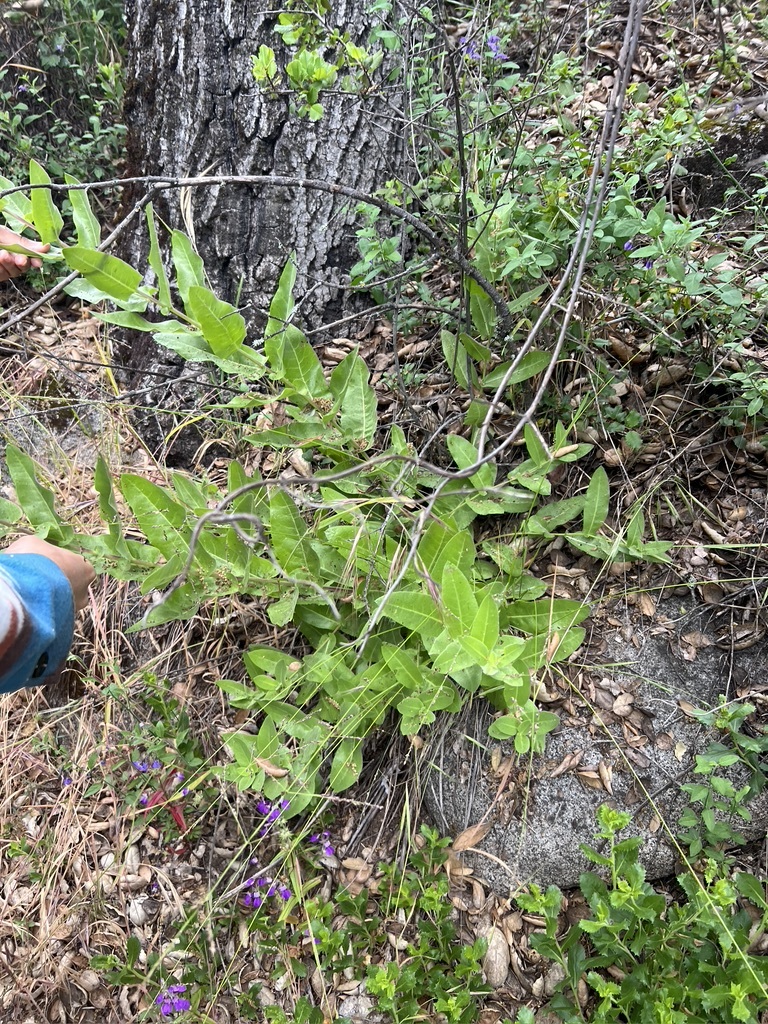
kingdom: Plantae
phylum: Tracheophyta
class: Magnoliopsida
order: Asterales
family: Asteraceae
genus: Acourtia
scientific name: Acourtia microcephala
